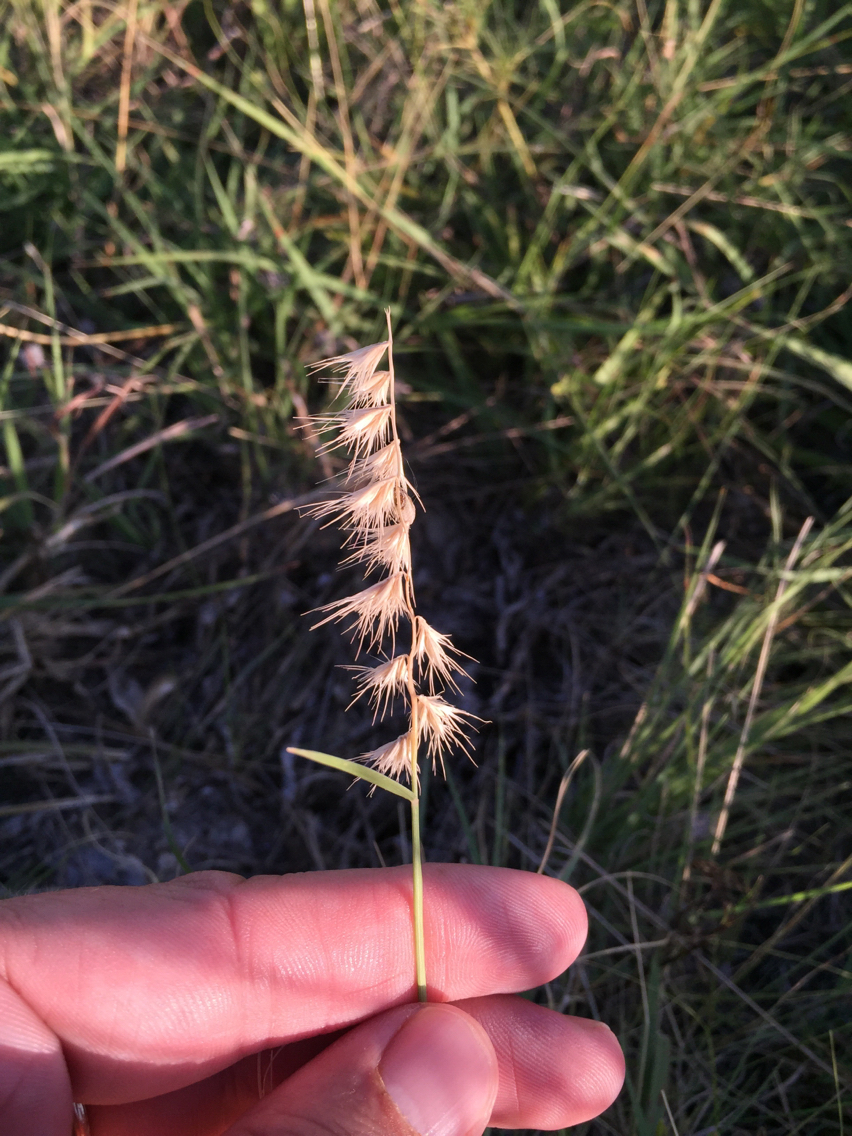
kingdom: Plantae
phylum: Tracheophyta
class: Liliopsida
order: Poales
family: Poaceae
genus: Bouteloua
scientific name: Bouteloua rigidiseta
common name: Texas grama
